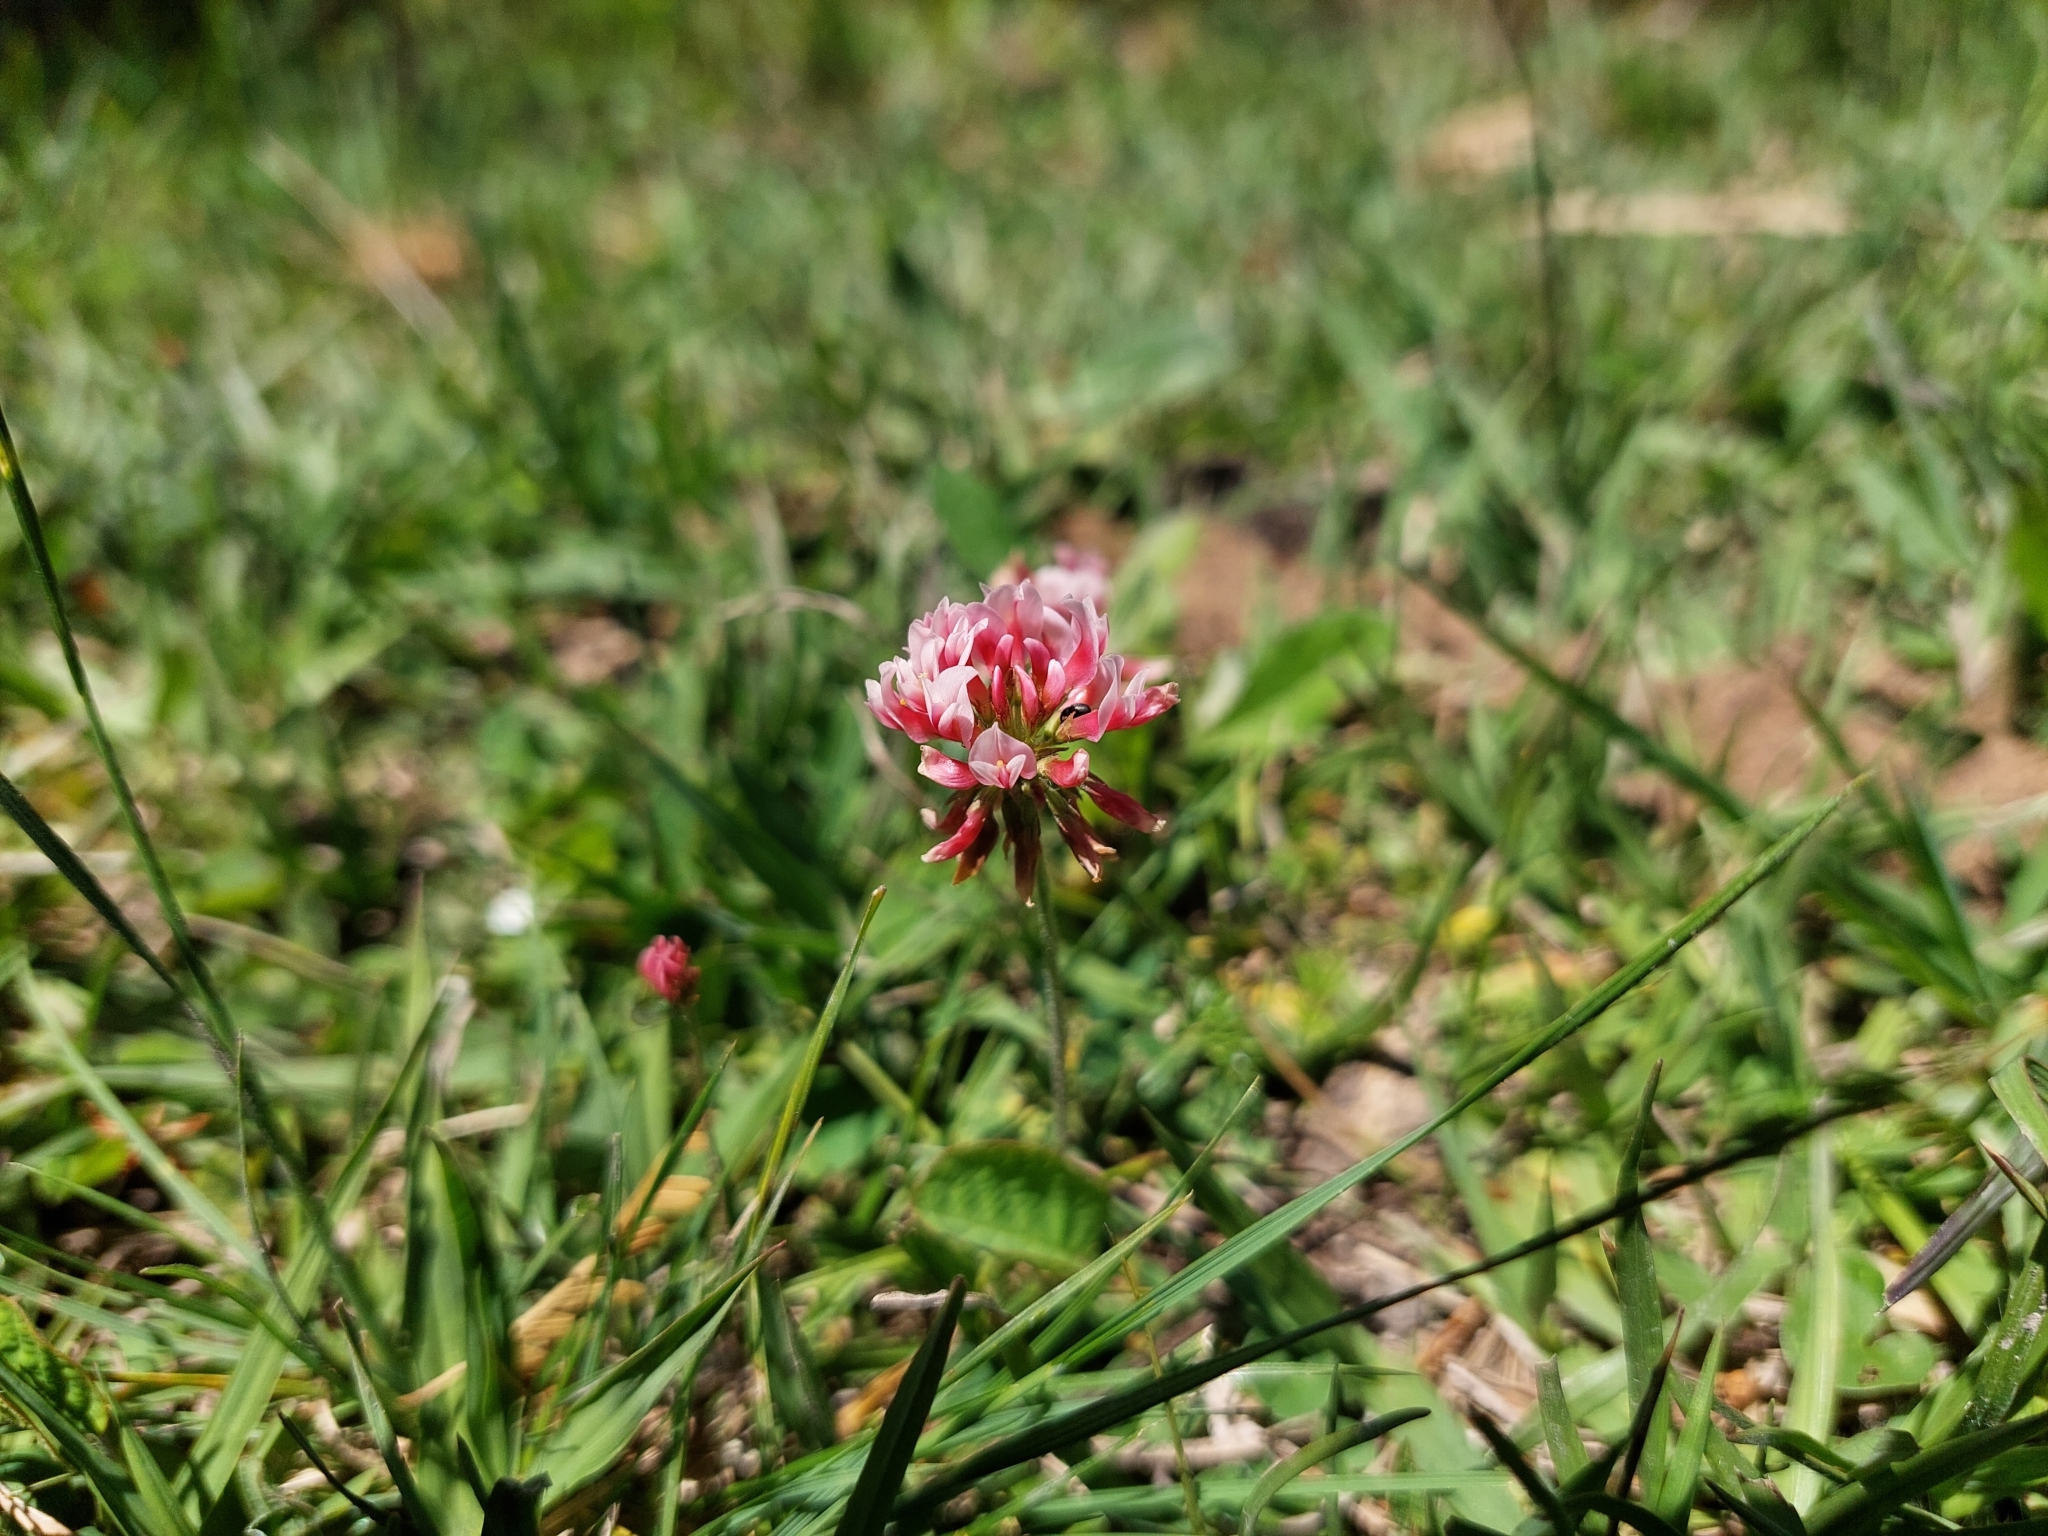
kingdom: Plantae
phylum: Tracheophyta
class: Magnoliopsida
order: Fabales
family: Fabaceae
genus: Trifolium
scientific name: Trifolium polymorphum
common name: Peanut clover
